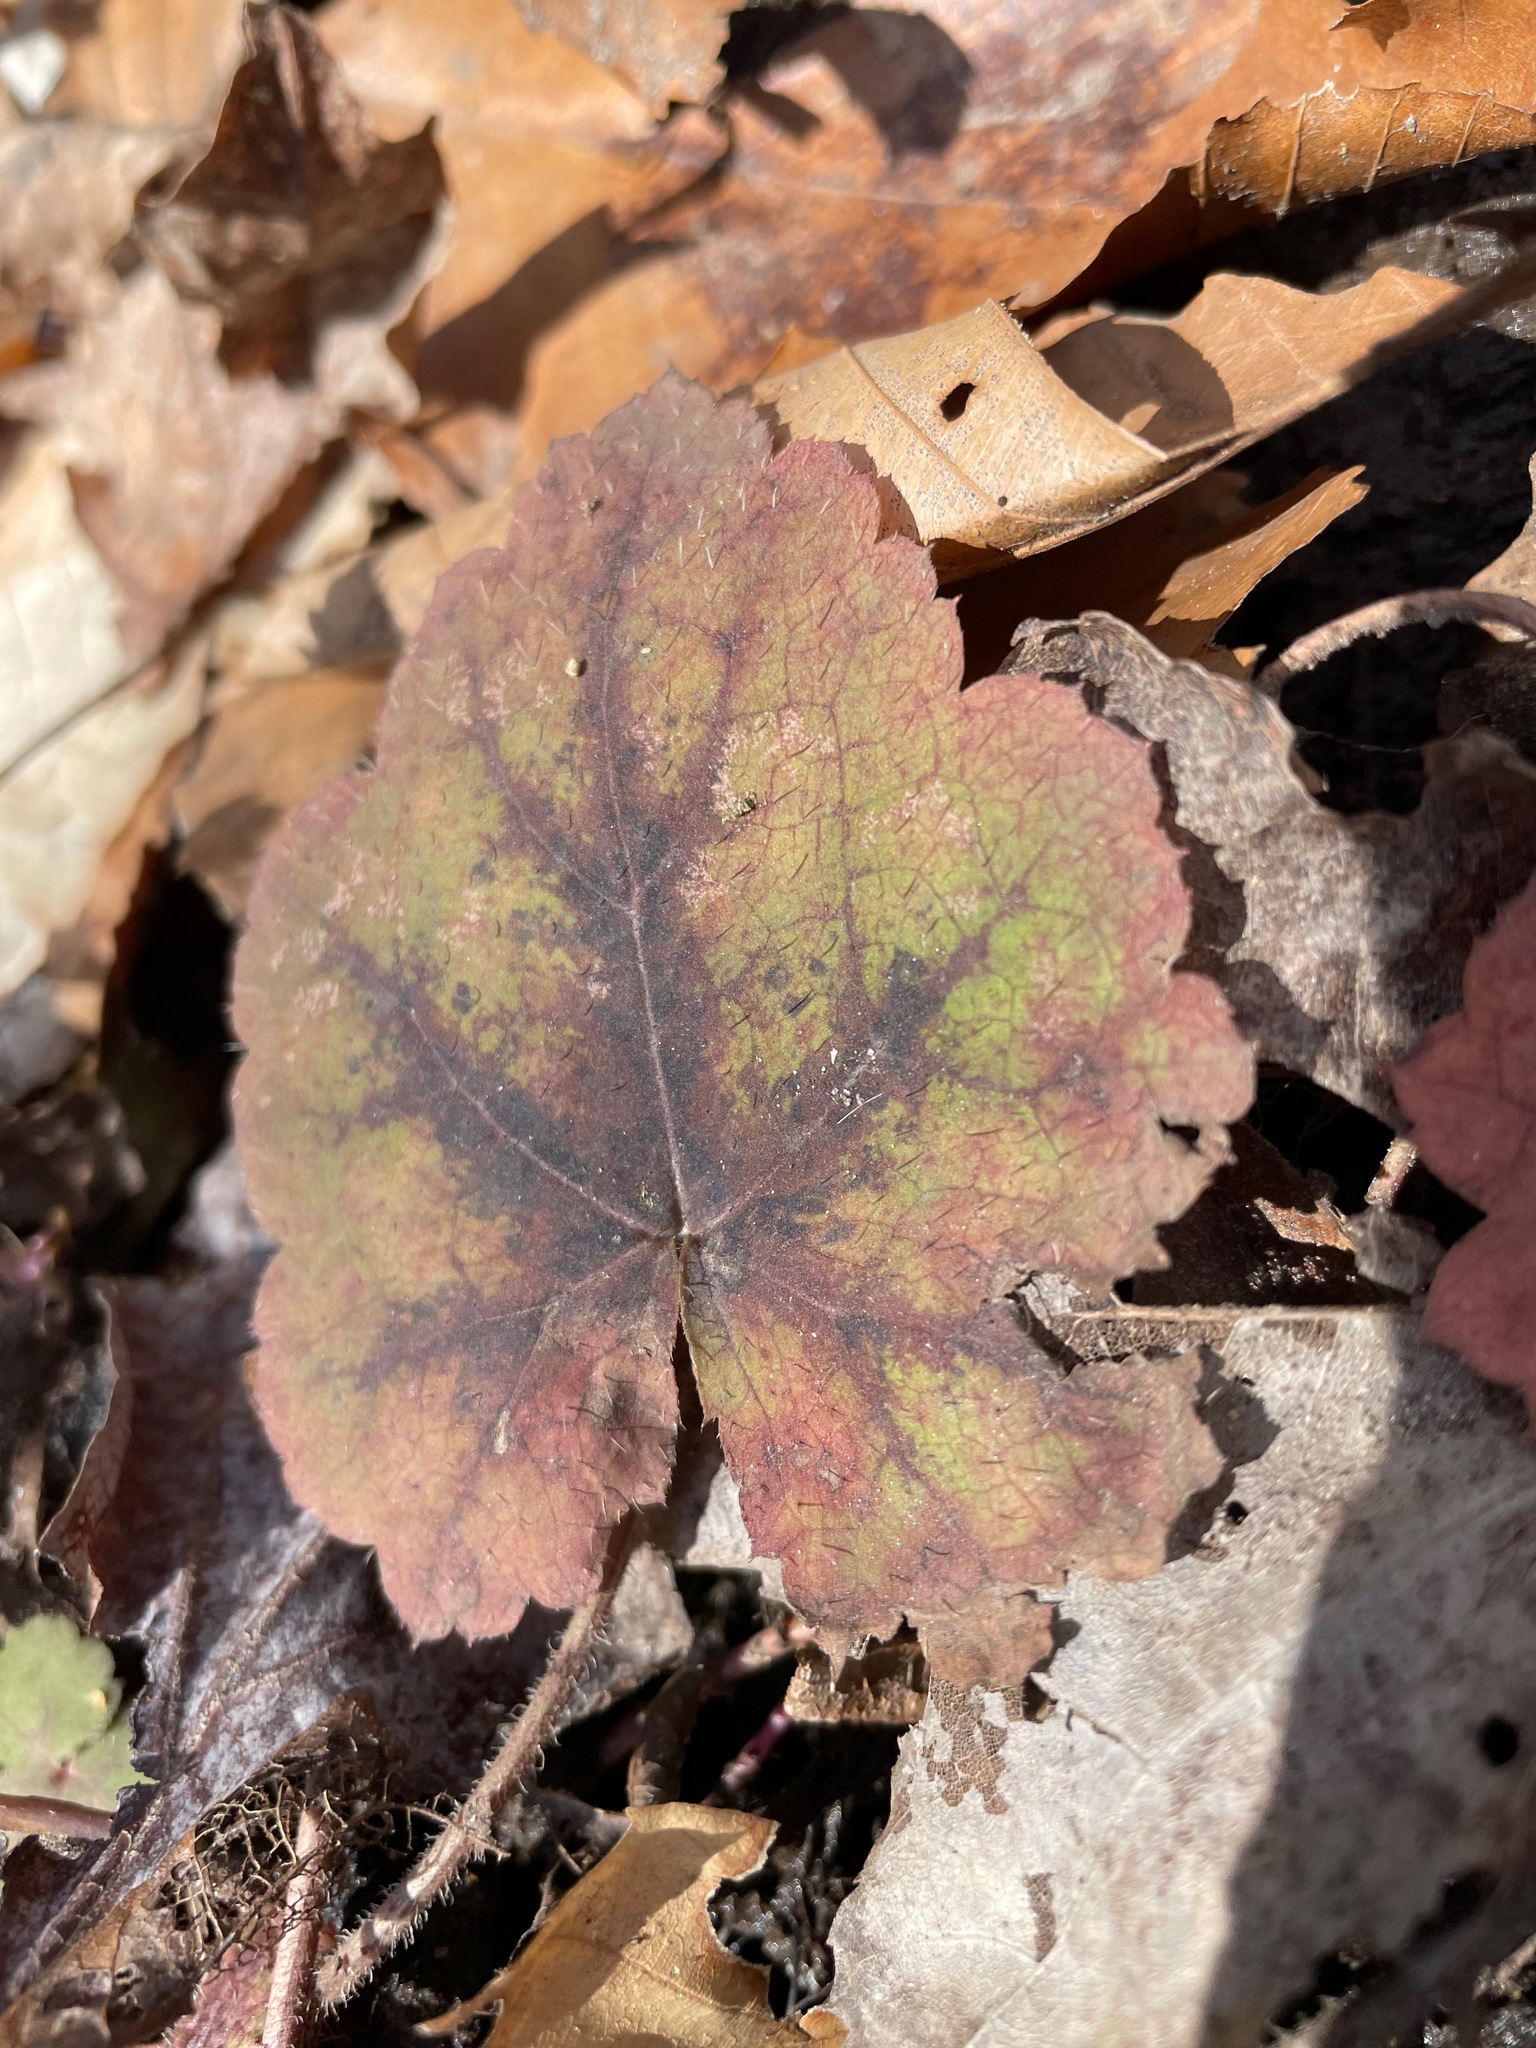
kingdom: Plantae
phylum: Tracheophyta
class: Magnoliopsida
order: Saxifragales
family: Saxifragaceae
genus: Tiarella
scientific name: Tiarella stolonifera
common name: Stoloniferous foamflower
